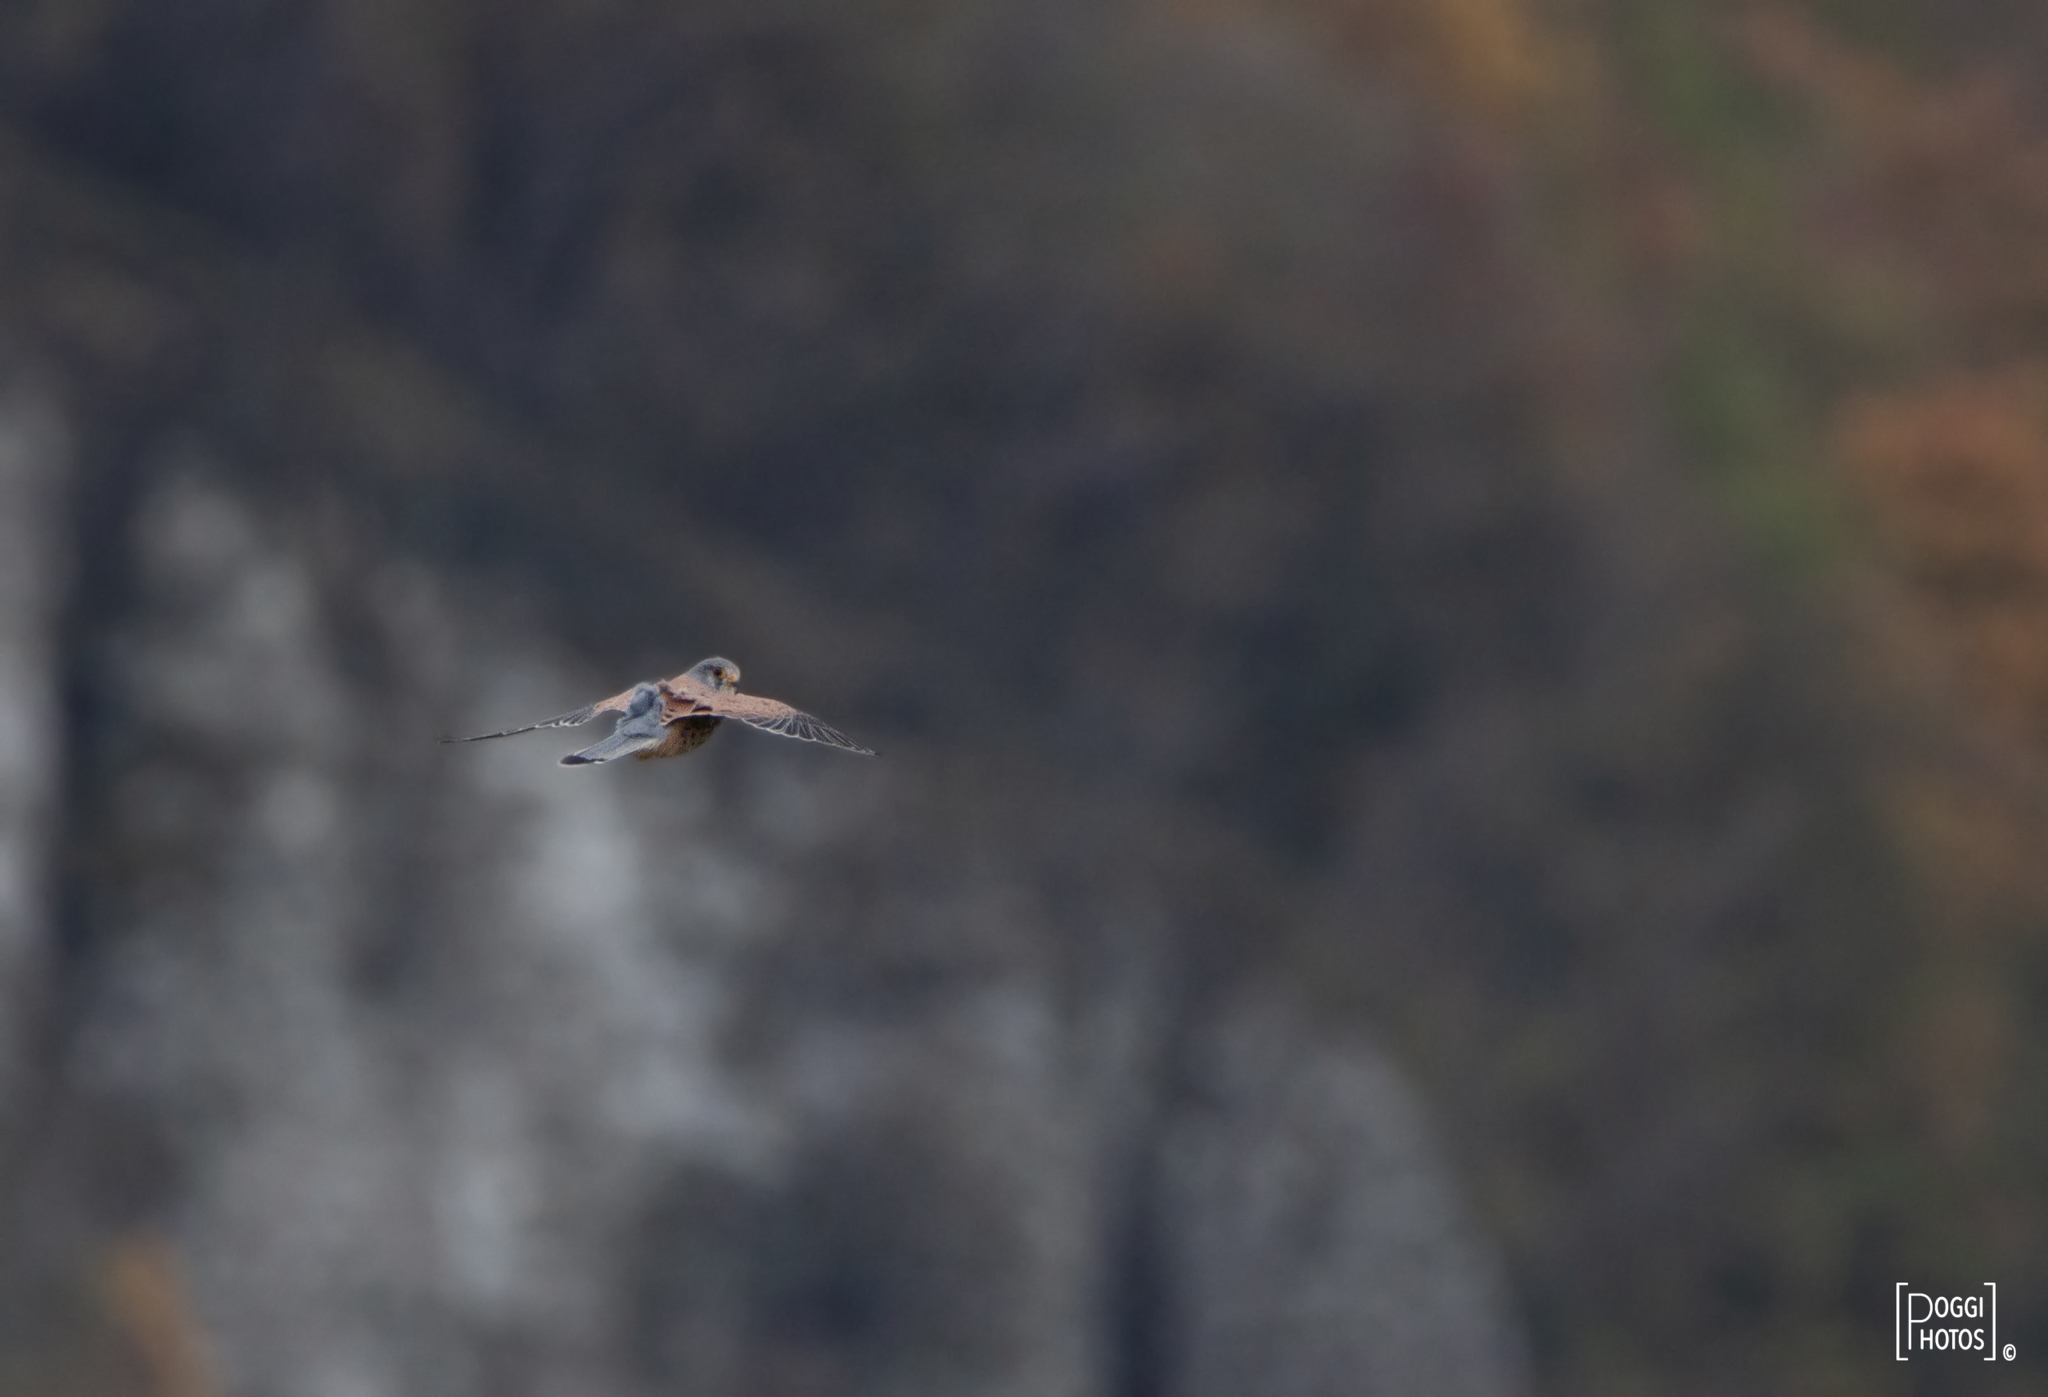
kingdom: Animalia
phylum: Chordata
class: Aves
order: Falconiformes
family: Falconidae
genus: Falco
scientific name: Falco tinnunculus
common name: Common kestrel
